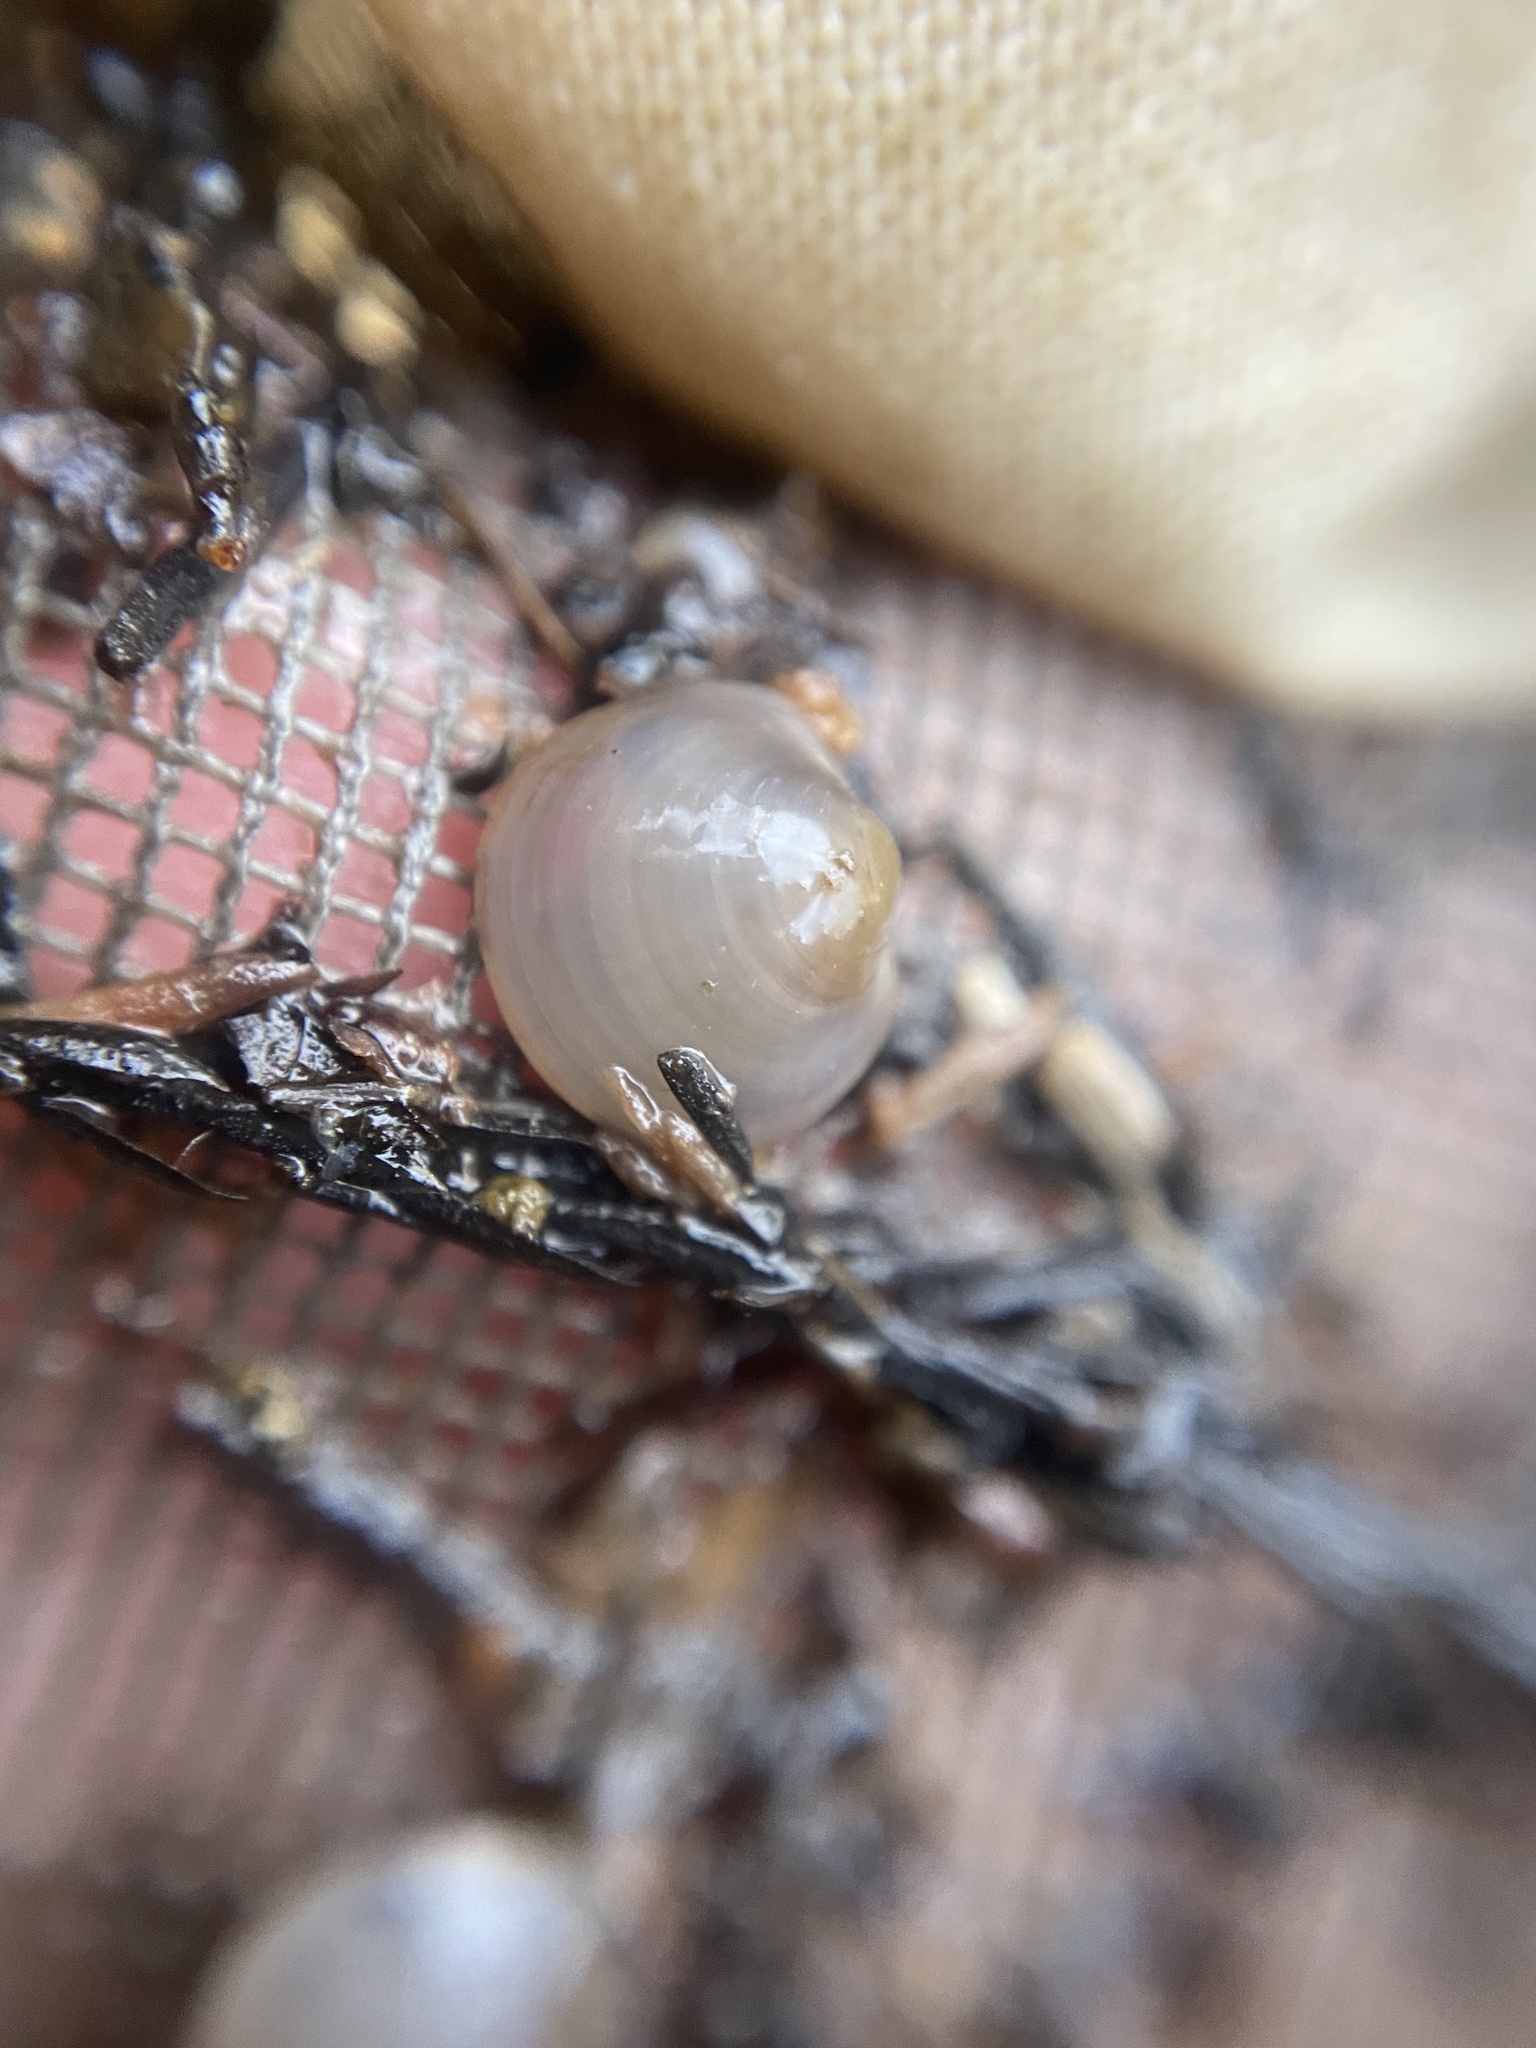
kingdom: Animalia
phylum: Mollusca
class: Bivalvia
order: Sphaeriida
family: Sphaeriidae
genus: Musculium
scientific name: Musculium partumeium
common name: Swamp fingernailclam
